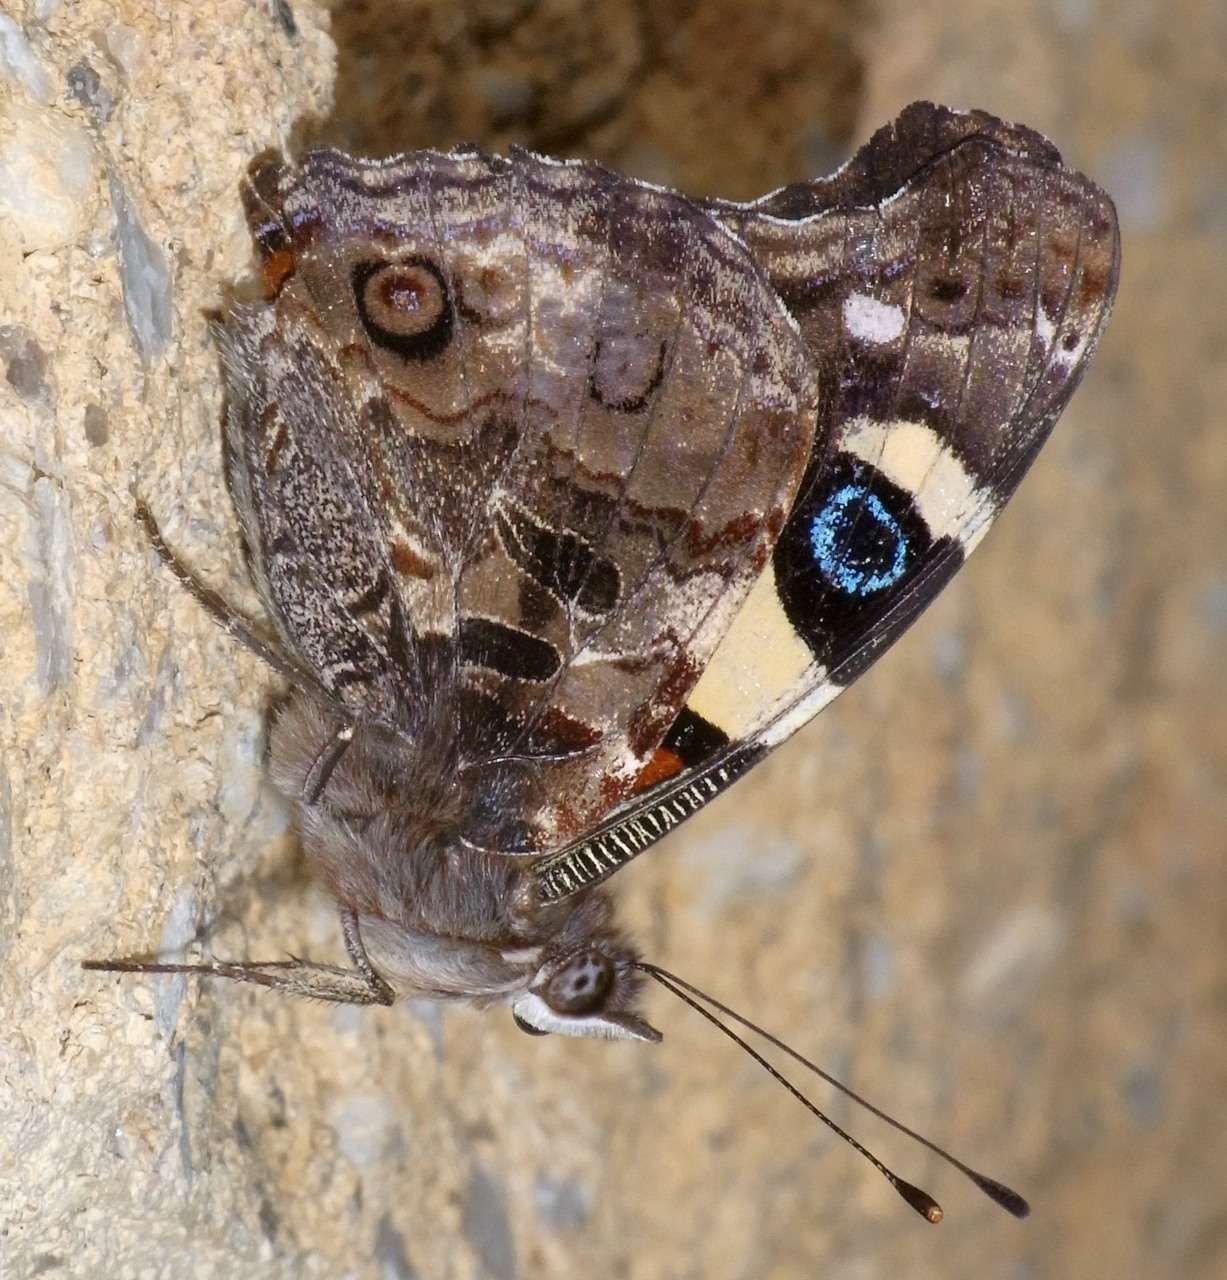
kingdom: Animalia
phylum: Arthropoda
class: Insecta
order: Lepidoptera
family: Nymphalidae
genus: Vanessa
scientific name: Vanessa itea
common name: Yellow admiral
